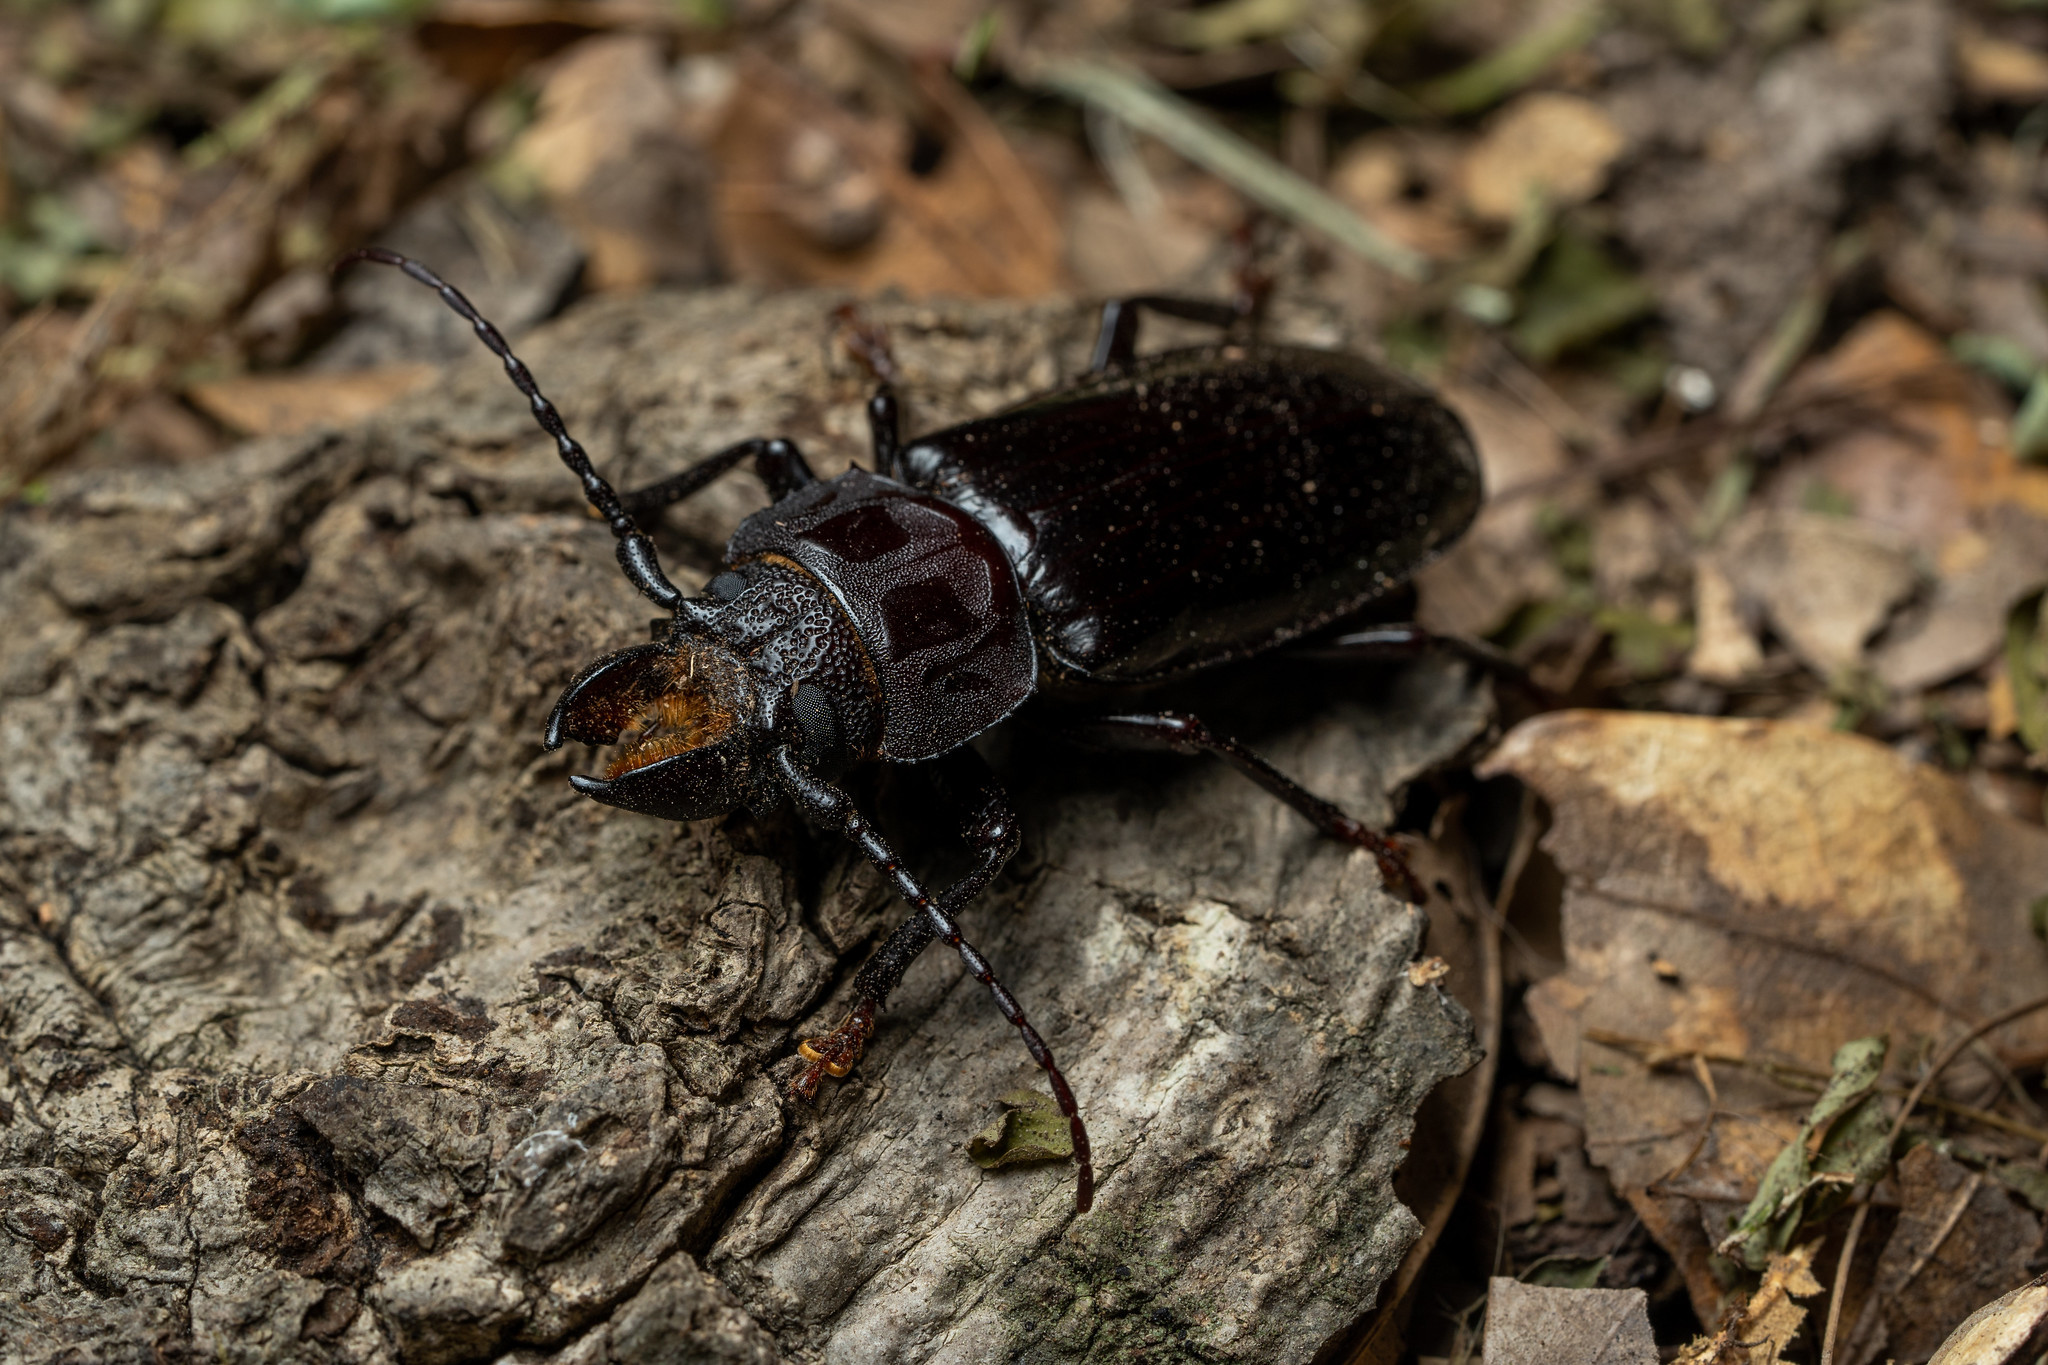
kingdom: Animalia
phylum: Arthropoda
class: Insecta
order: Coleoptera
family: Cerambycidae
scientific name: Cerambycidae
